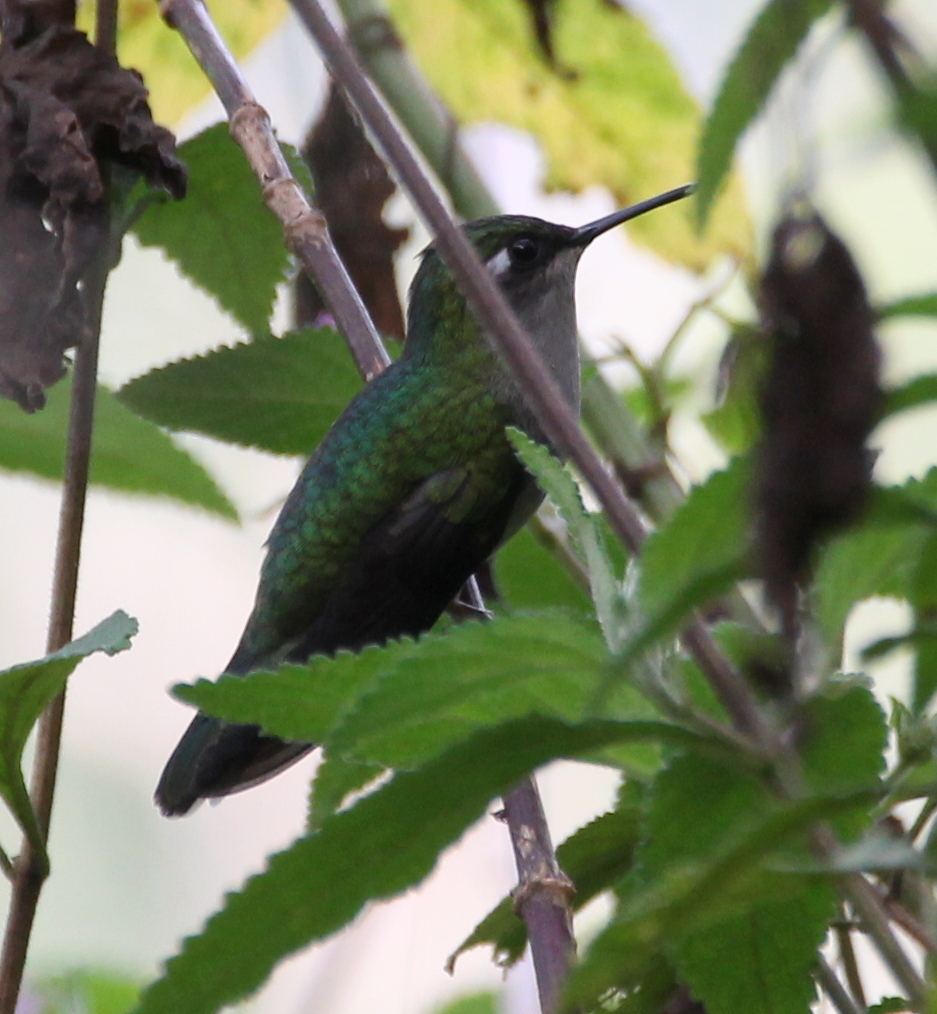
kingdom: Animalia
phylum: Chordata
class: Aves
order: Apodiformes
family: Trochilidae
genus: Eupetomena
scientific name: Eupetomena cirrochloris
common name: Sombre hummingbird
